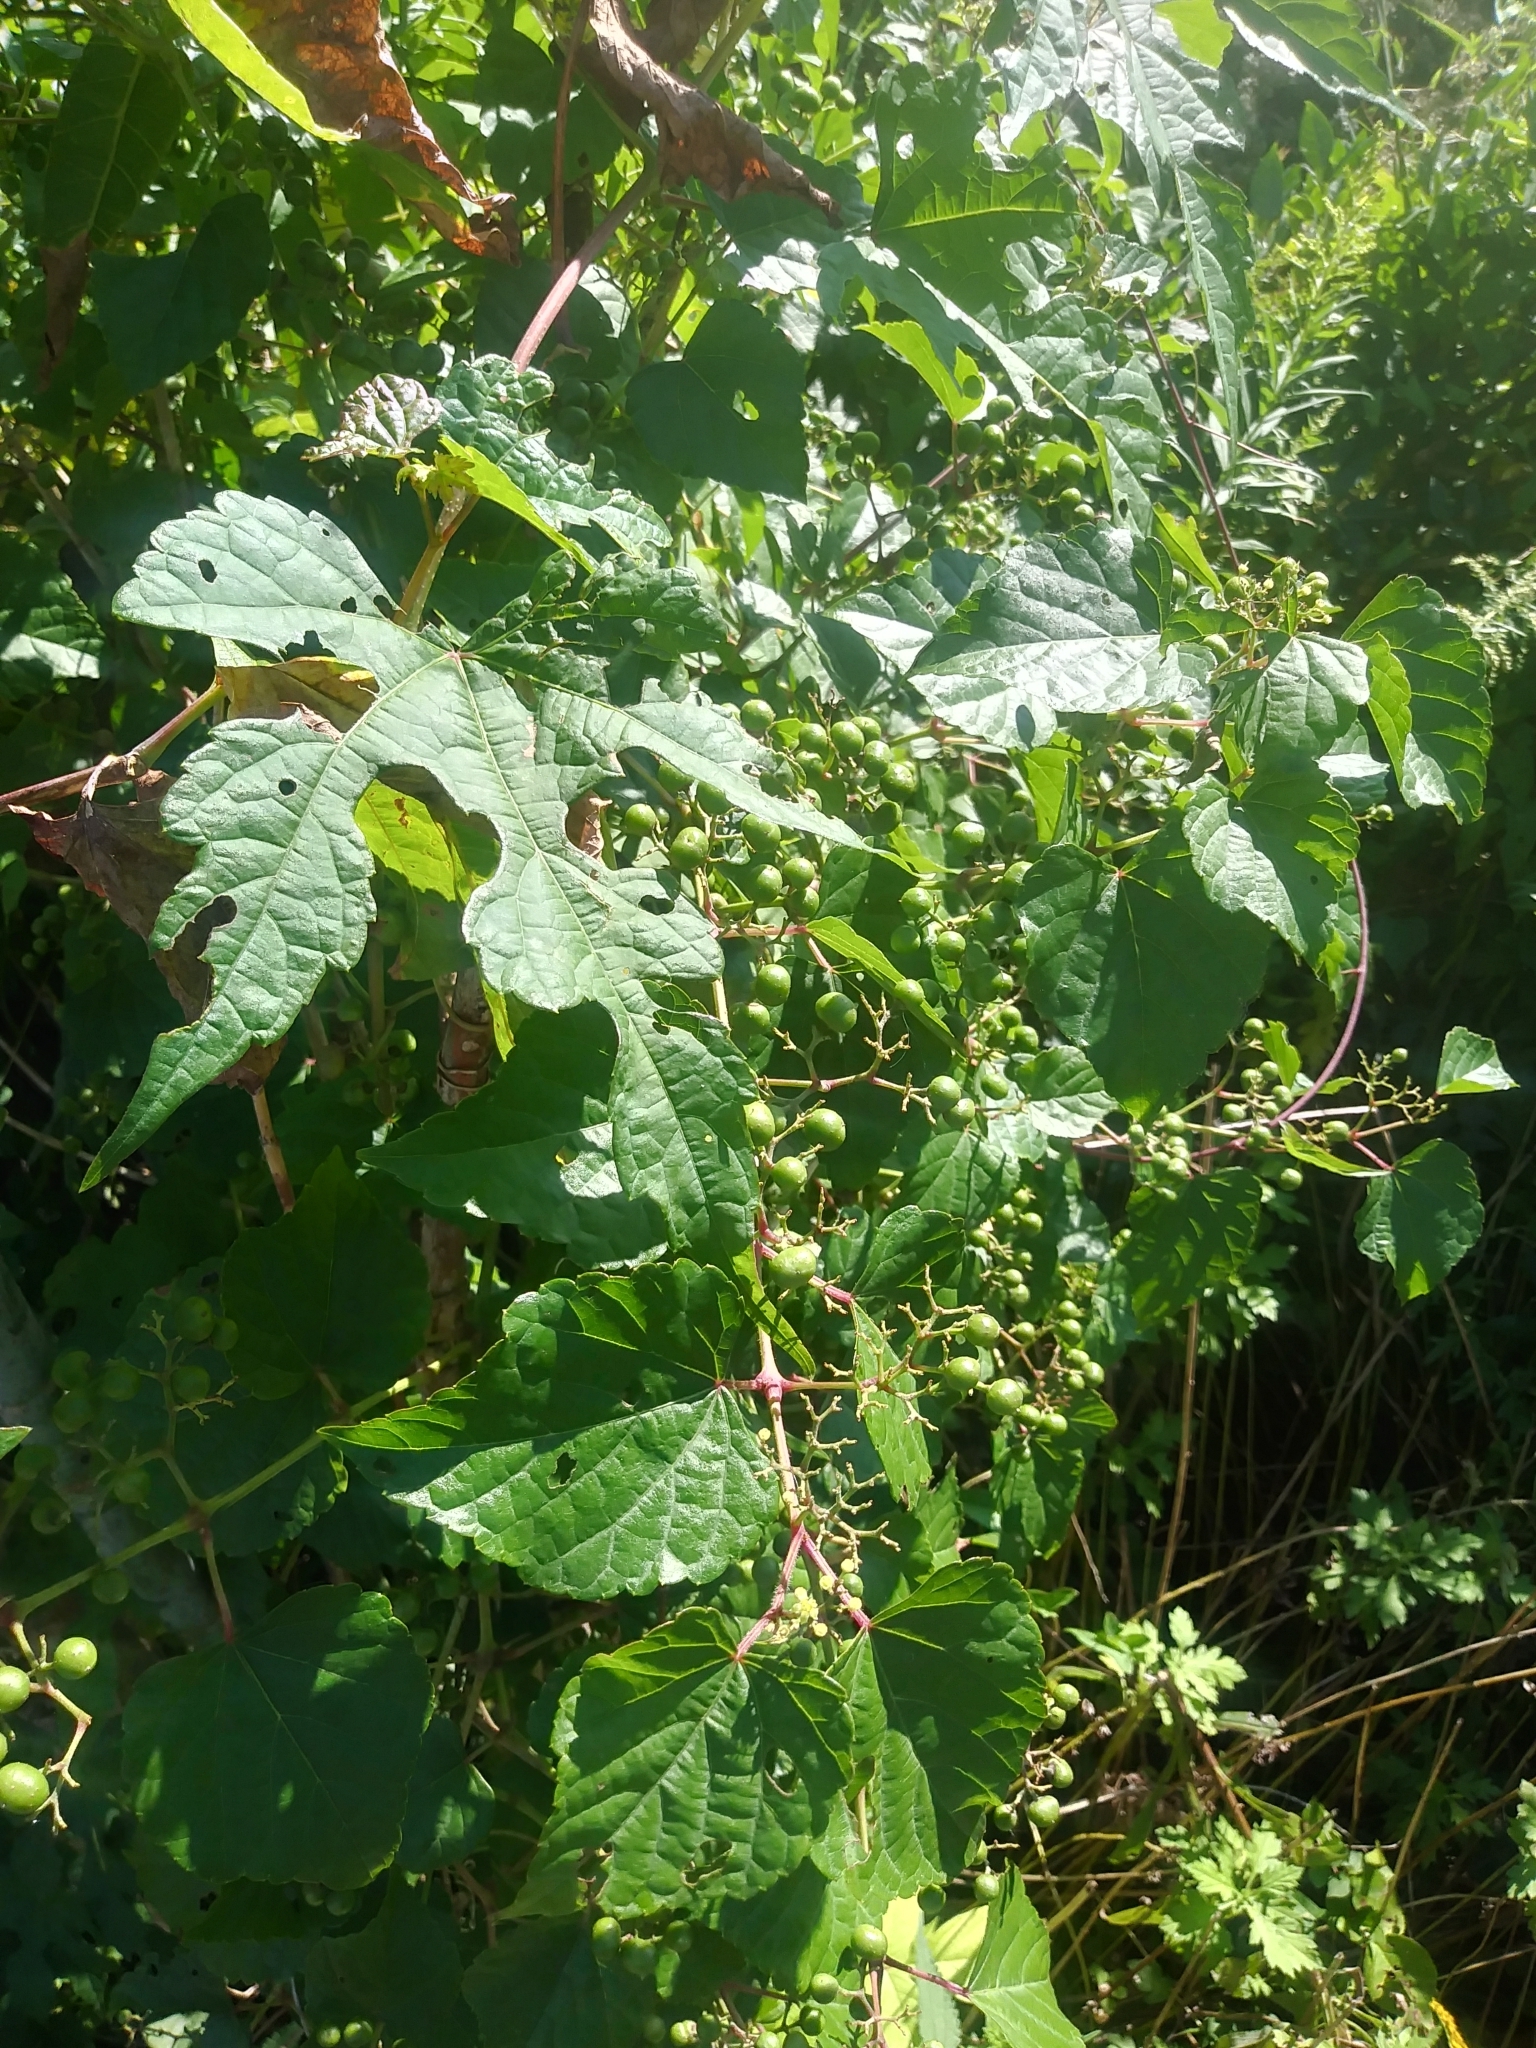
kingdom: Plantae
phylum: Tracheophyta
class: Magnoliopsida
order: Vitales
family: Vitaceae
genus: Ampelopsis
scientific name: Ampelopsis glandulosa
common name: Amur peppervine
